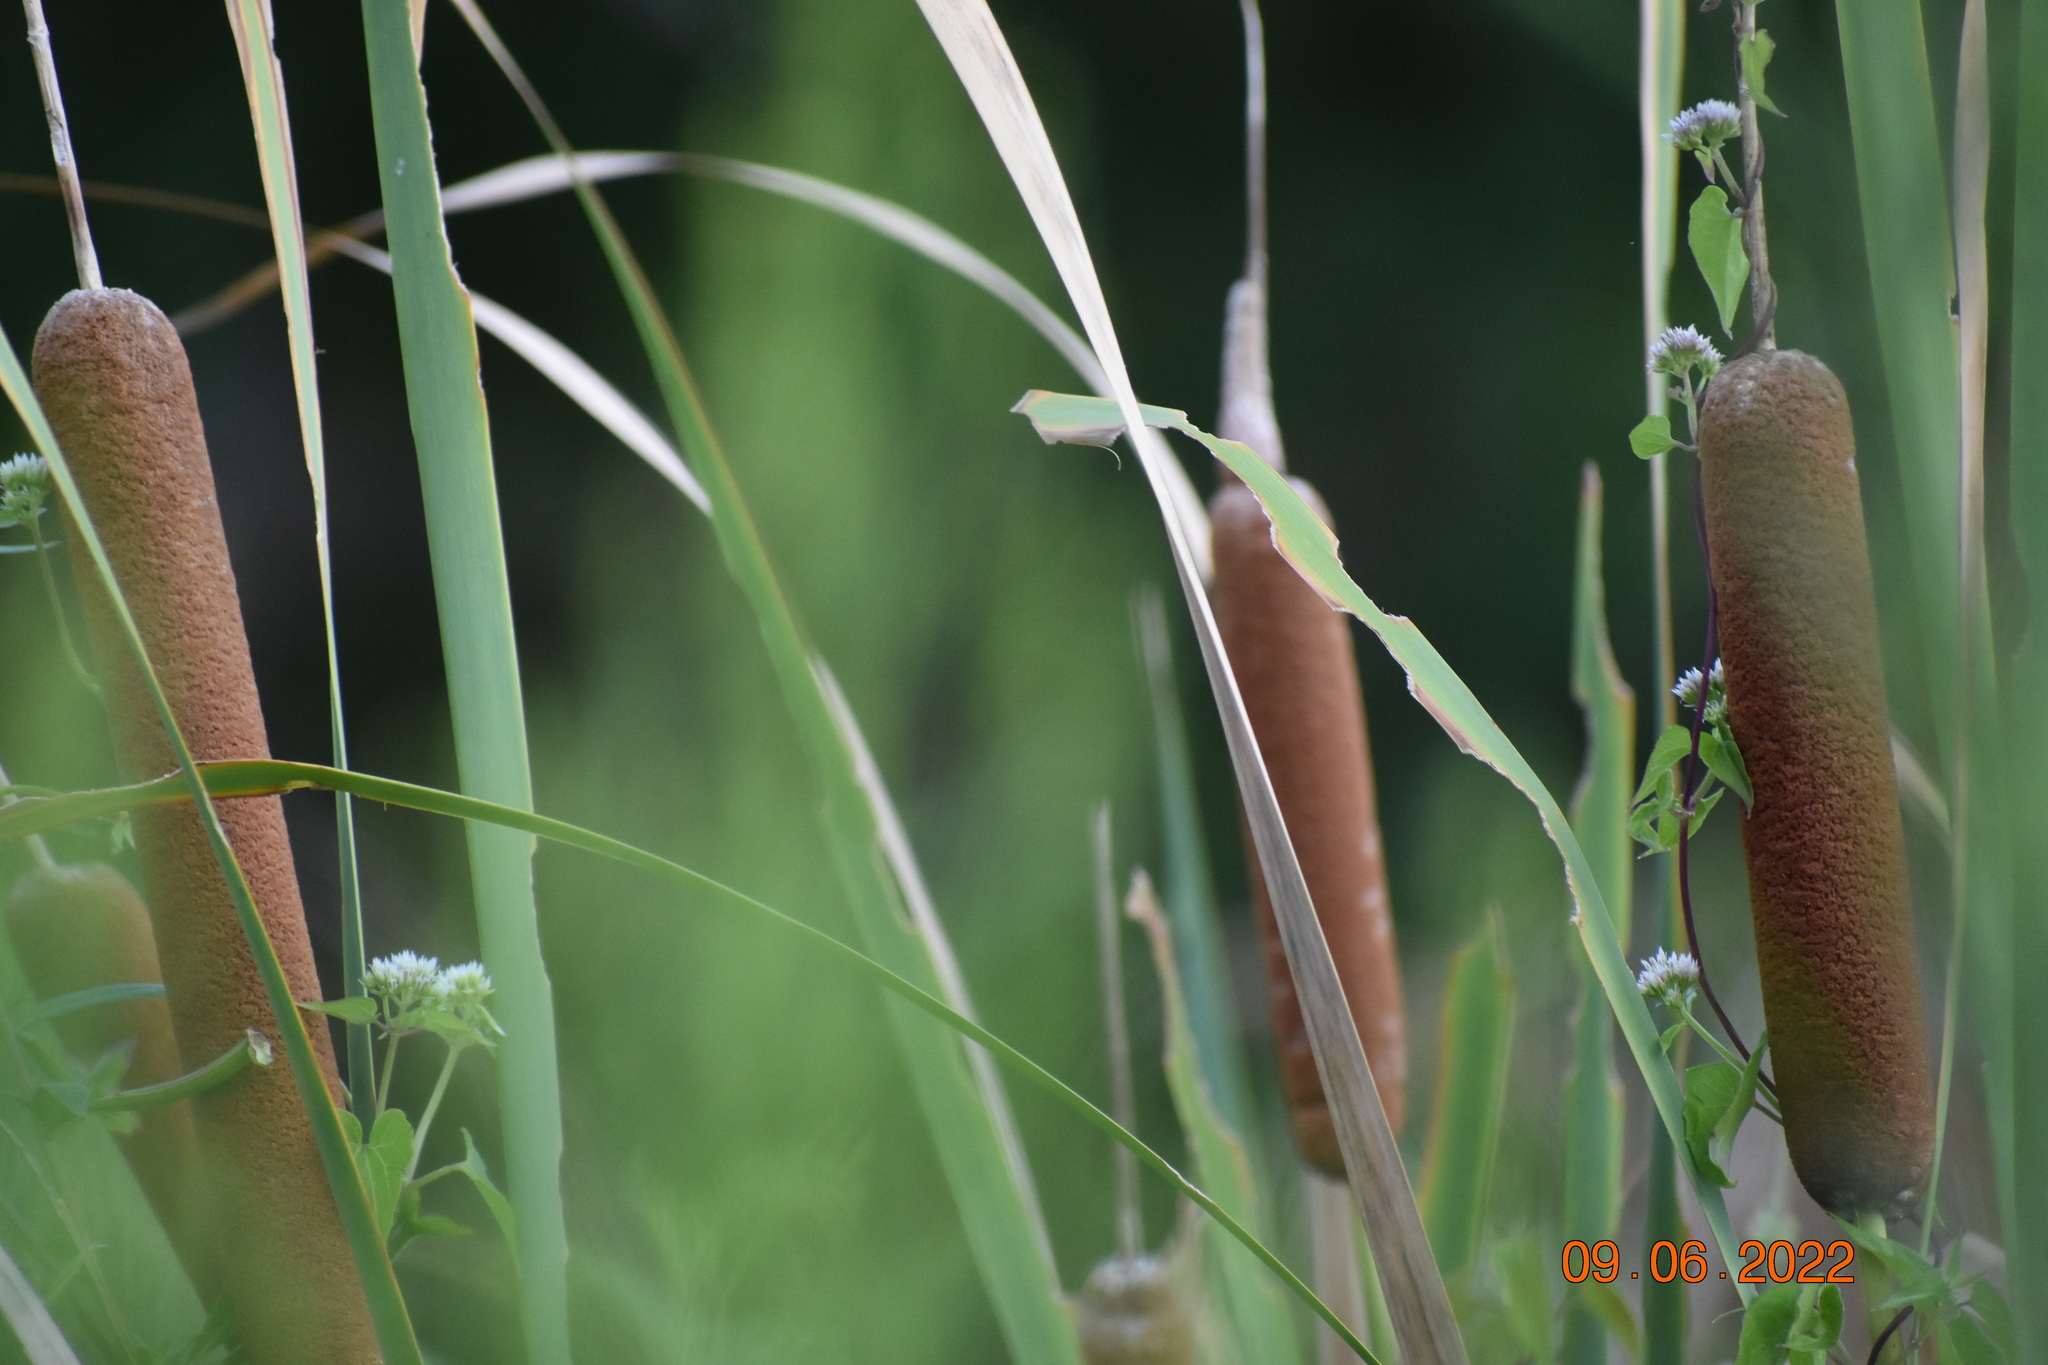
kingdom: Plantae
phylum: Tracheophyta
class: Liliopsida
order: Poales
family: Typhaceae
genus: Typha
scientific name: Typha domingensis
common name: Southern cattail
